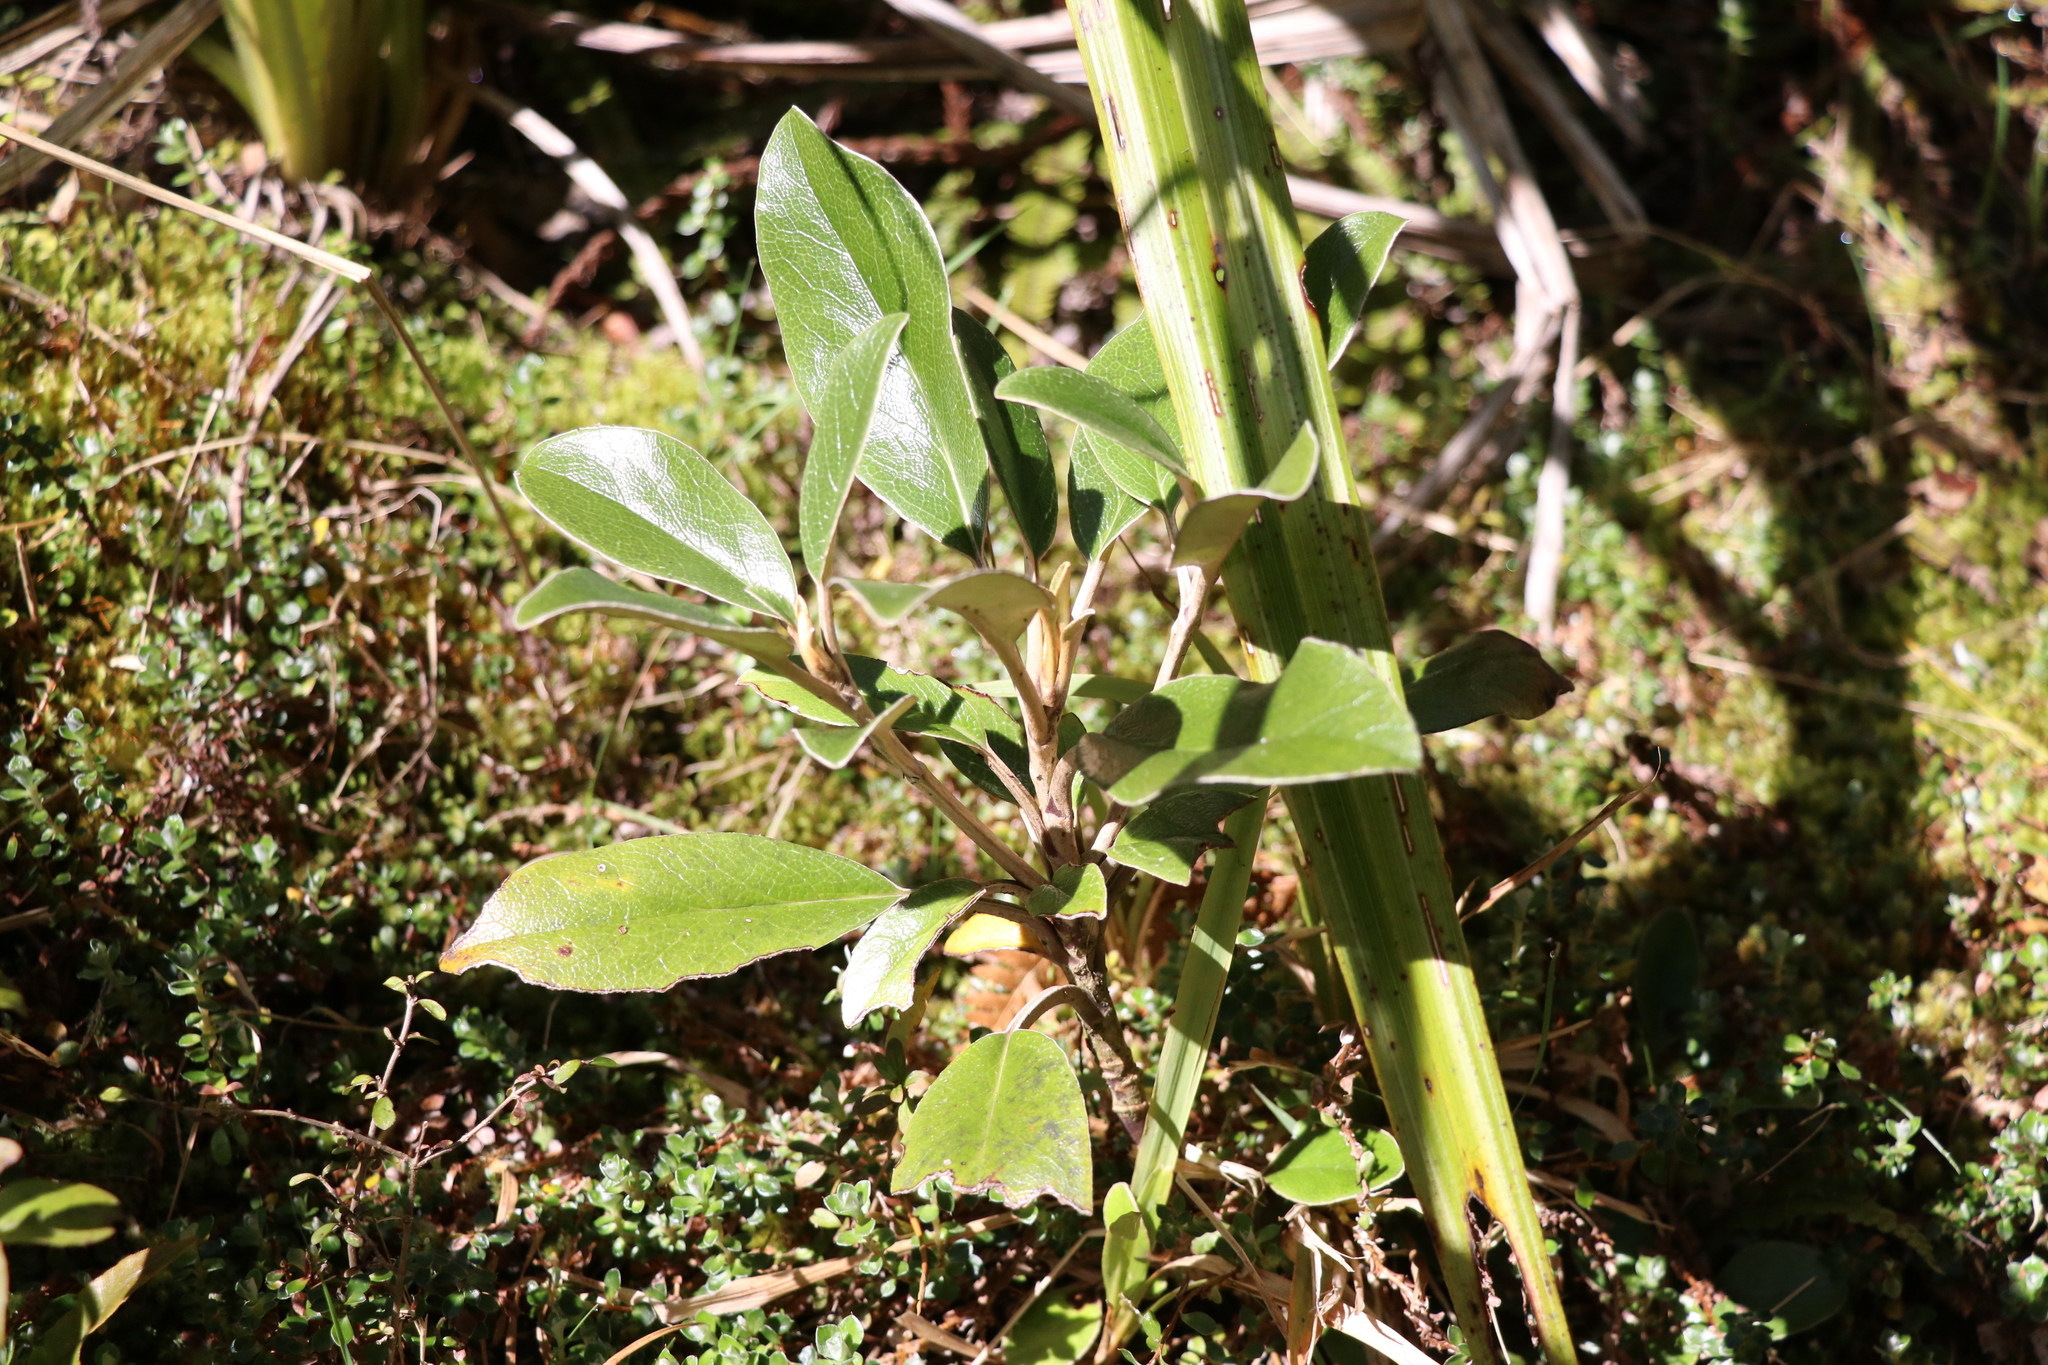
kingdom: Plantae
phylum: Tracheophyta
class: Magnoliopsida
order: Asterales
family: Asteraceae
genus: Brachyglottis
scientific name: Brachyglottis elaeagnifolia
